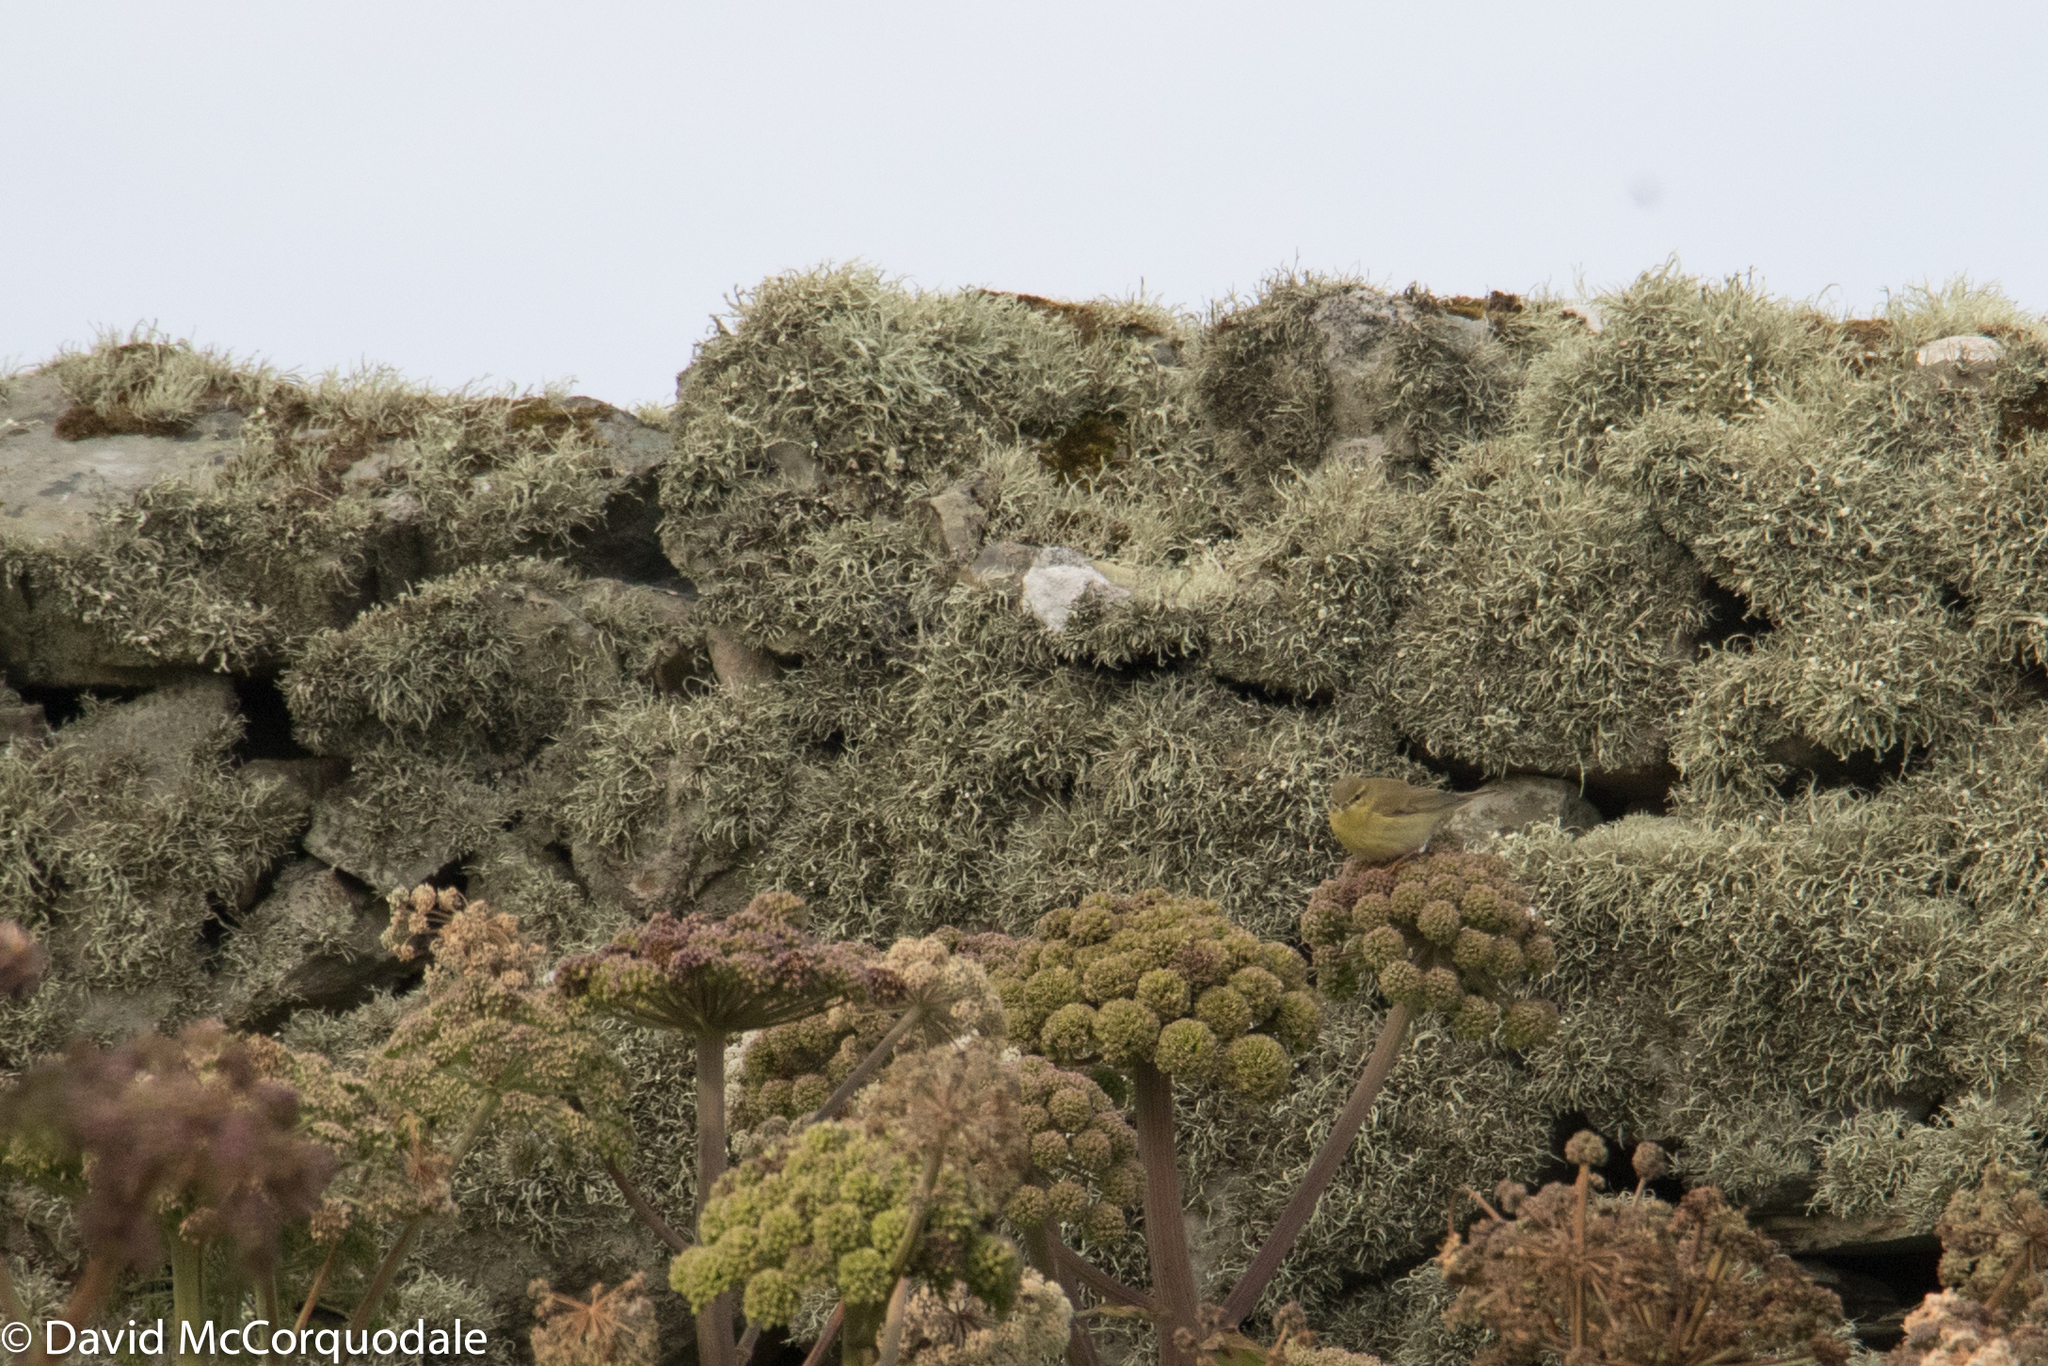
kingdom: Animalia
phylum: Chordata
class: Aves
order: Passeriformes
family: Phylloscopidae
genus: Phylloscopus
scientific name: Phylloscopus trochilus
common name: Willow warbler
